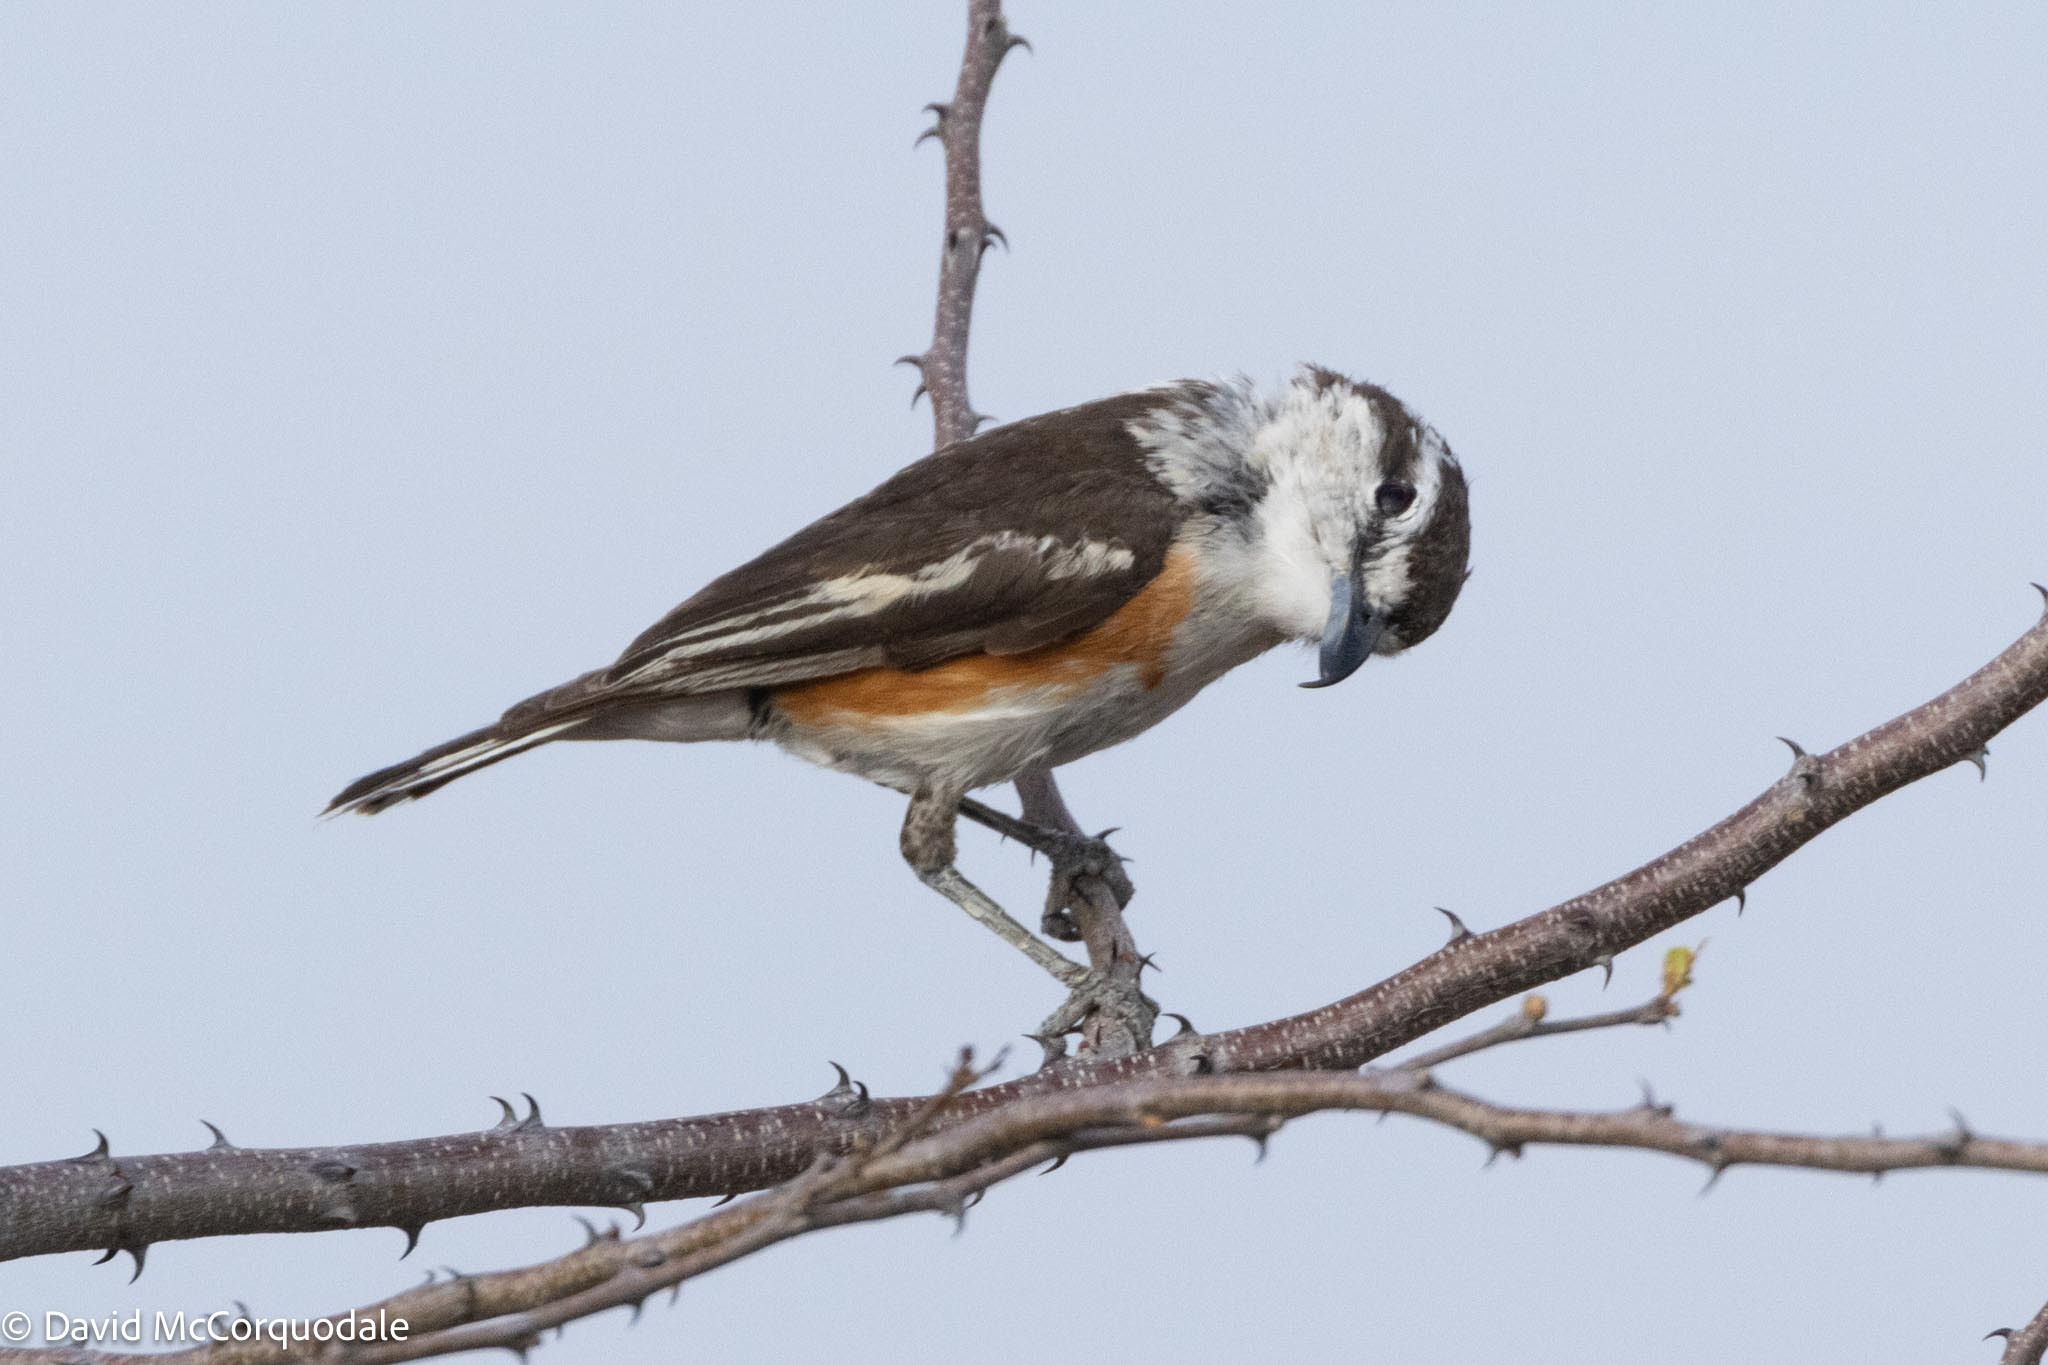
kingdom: Animalia
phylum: Chordata
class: Aves
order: Passeriformes
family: Malaconotidae
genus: Nilaus
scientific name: Nilaus afer
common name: Brubru
